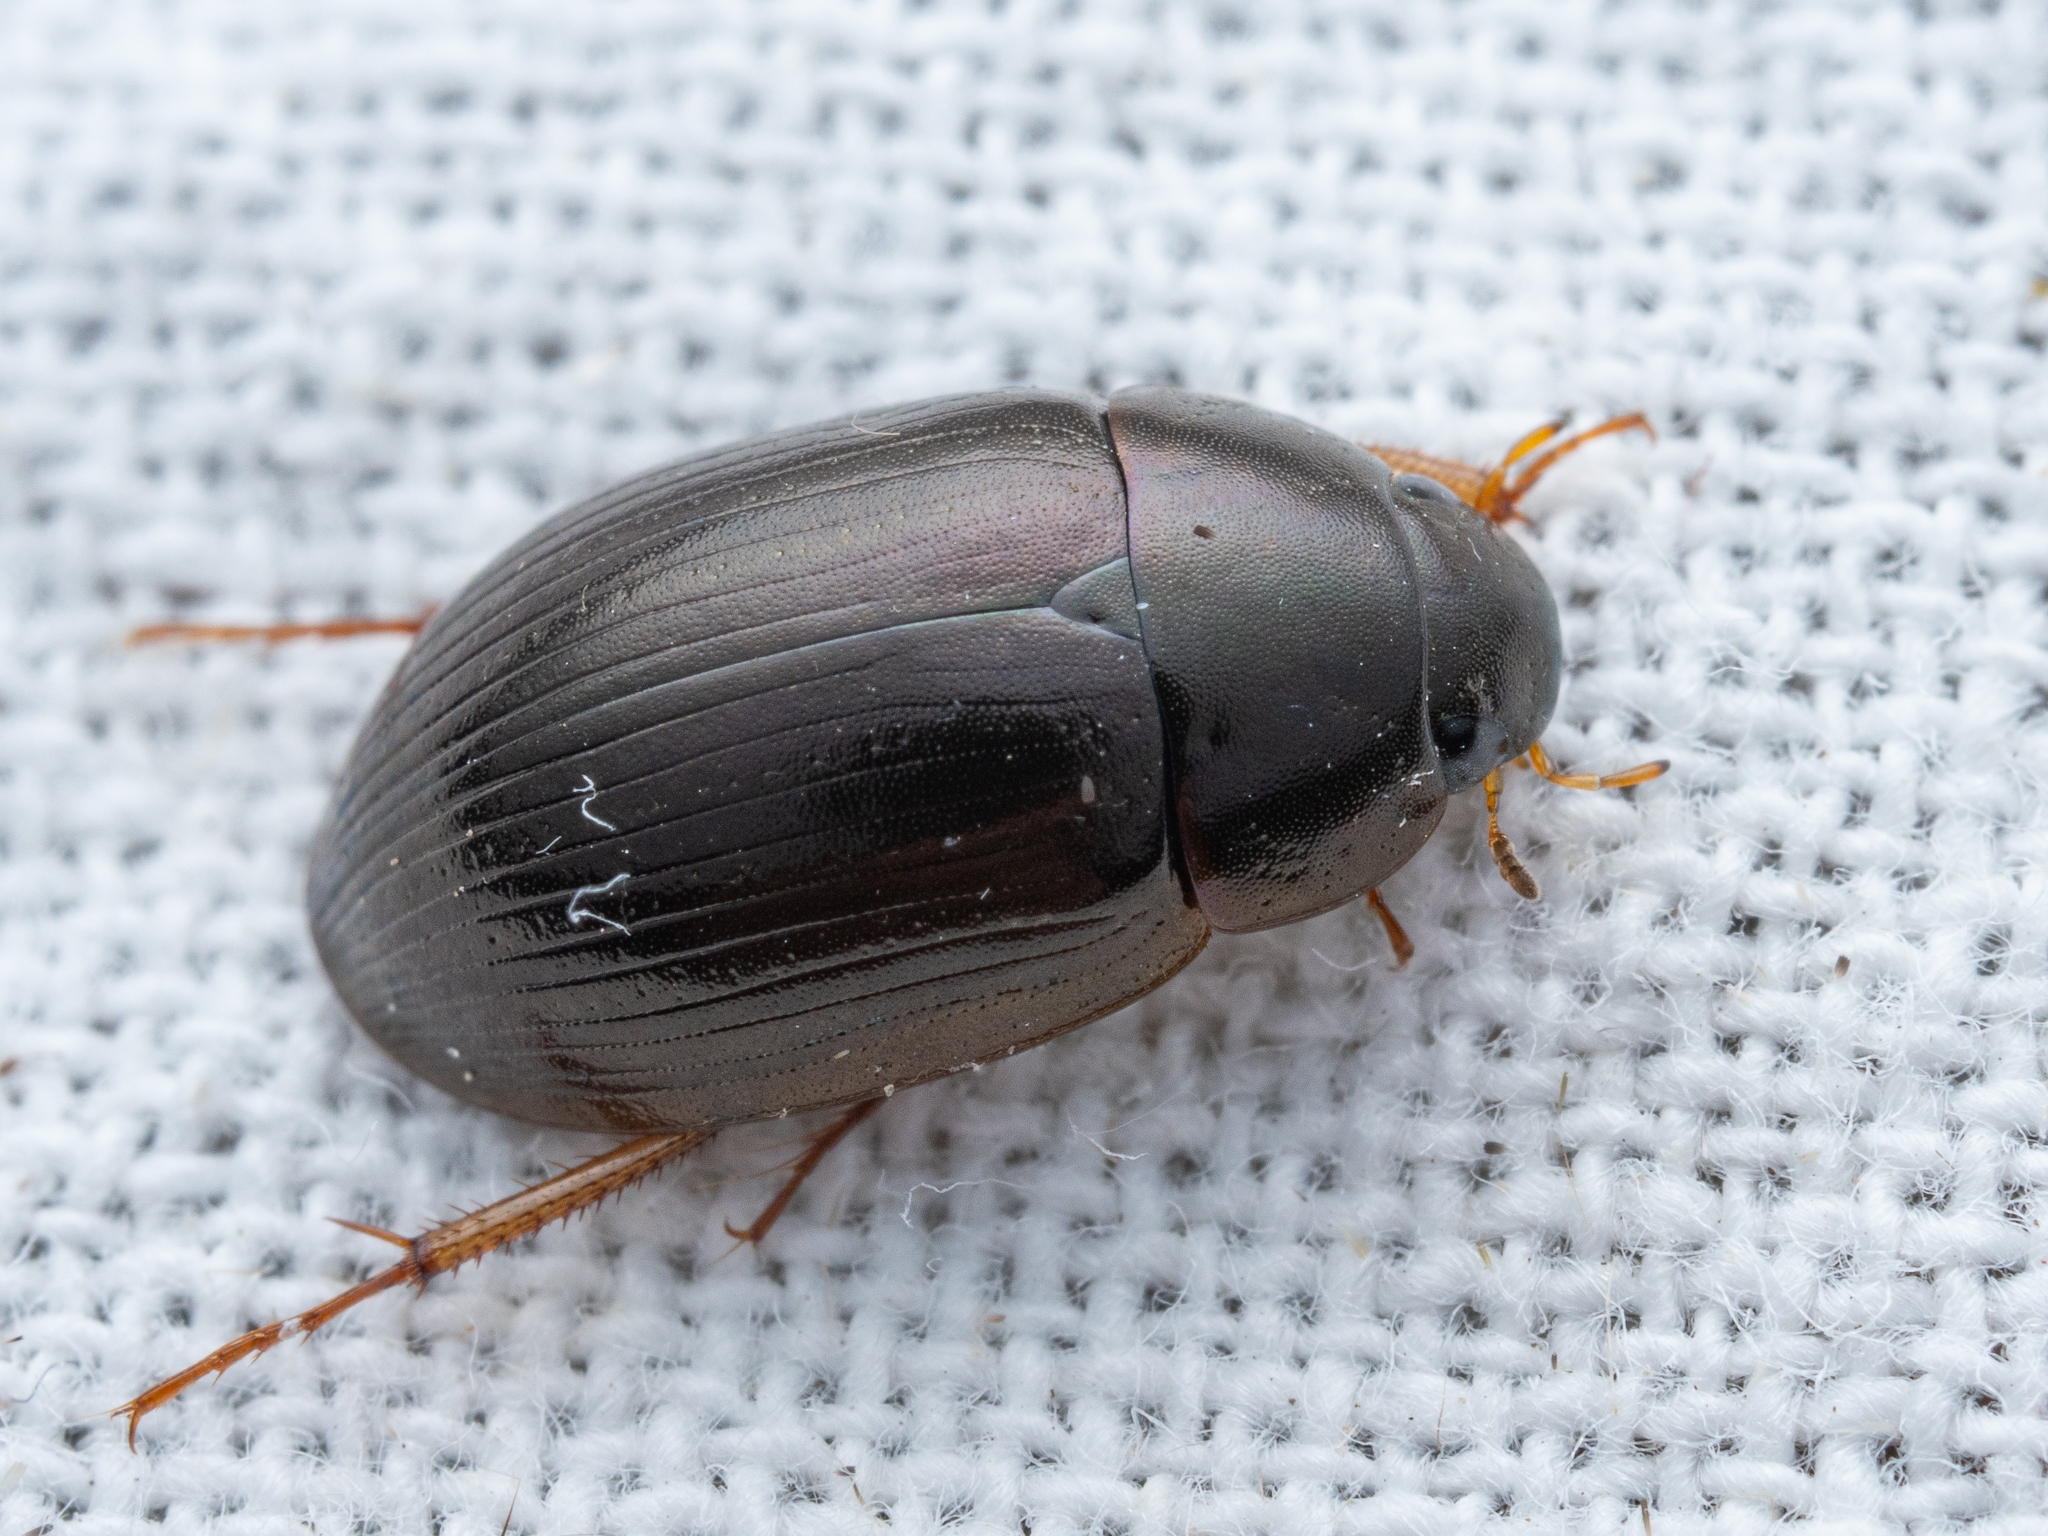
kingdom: Animalia
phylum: Arthropoda
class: Insecta
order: Coleoptera
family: Hydrophilidae
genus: Hydrobius
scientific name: Hydrobius
